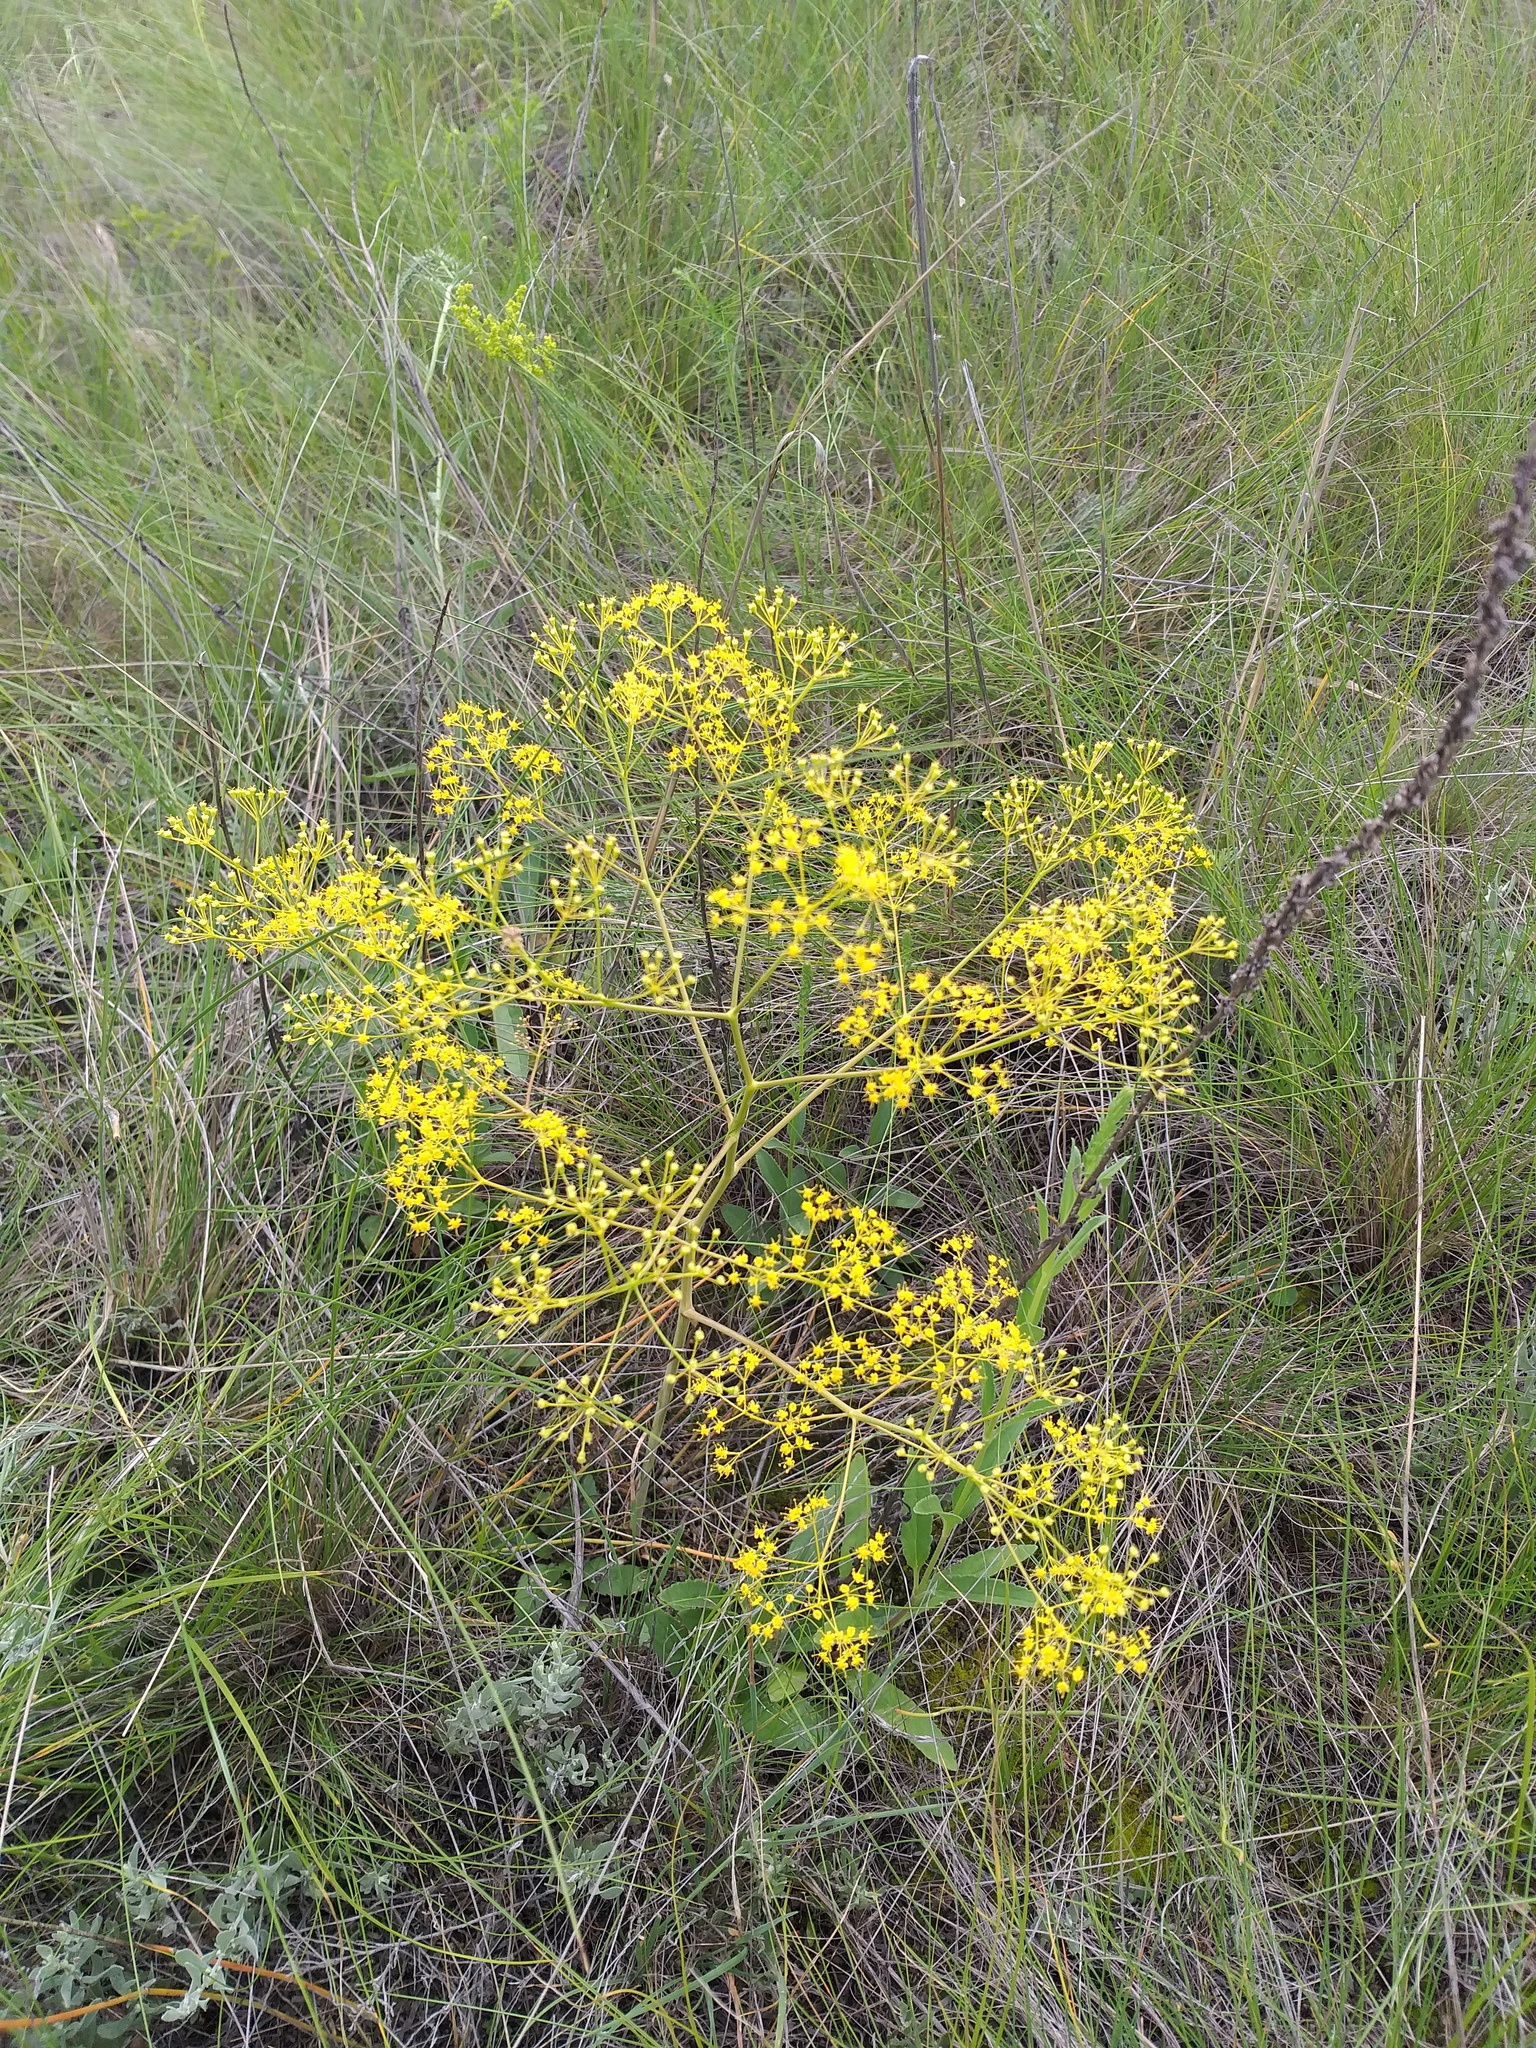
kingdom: Plantae
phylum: Tracheophyta
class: Magnoliopsida
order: Apiales
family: Apiaceae
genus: Ferula
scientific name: Ferula caspica
